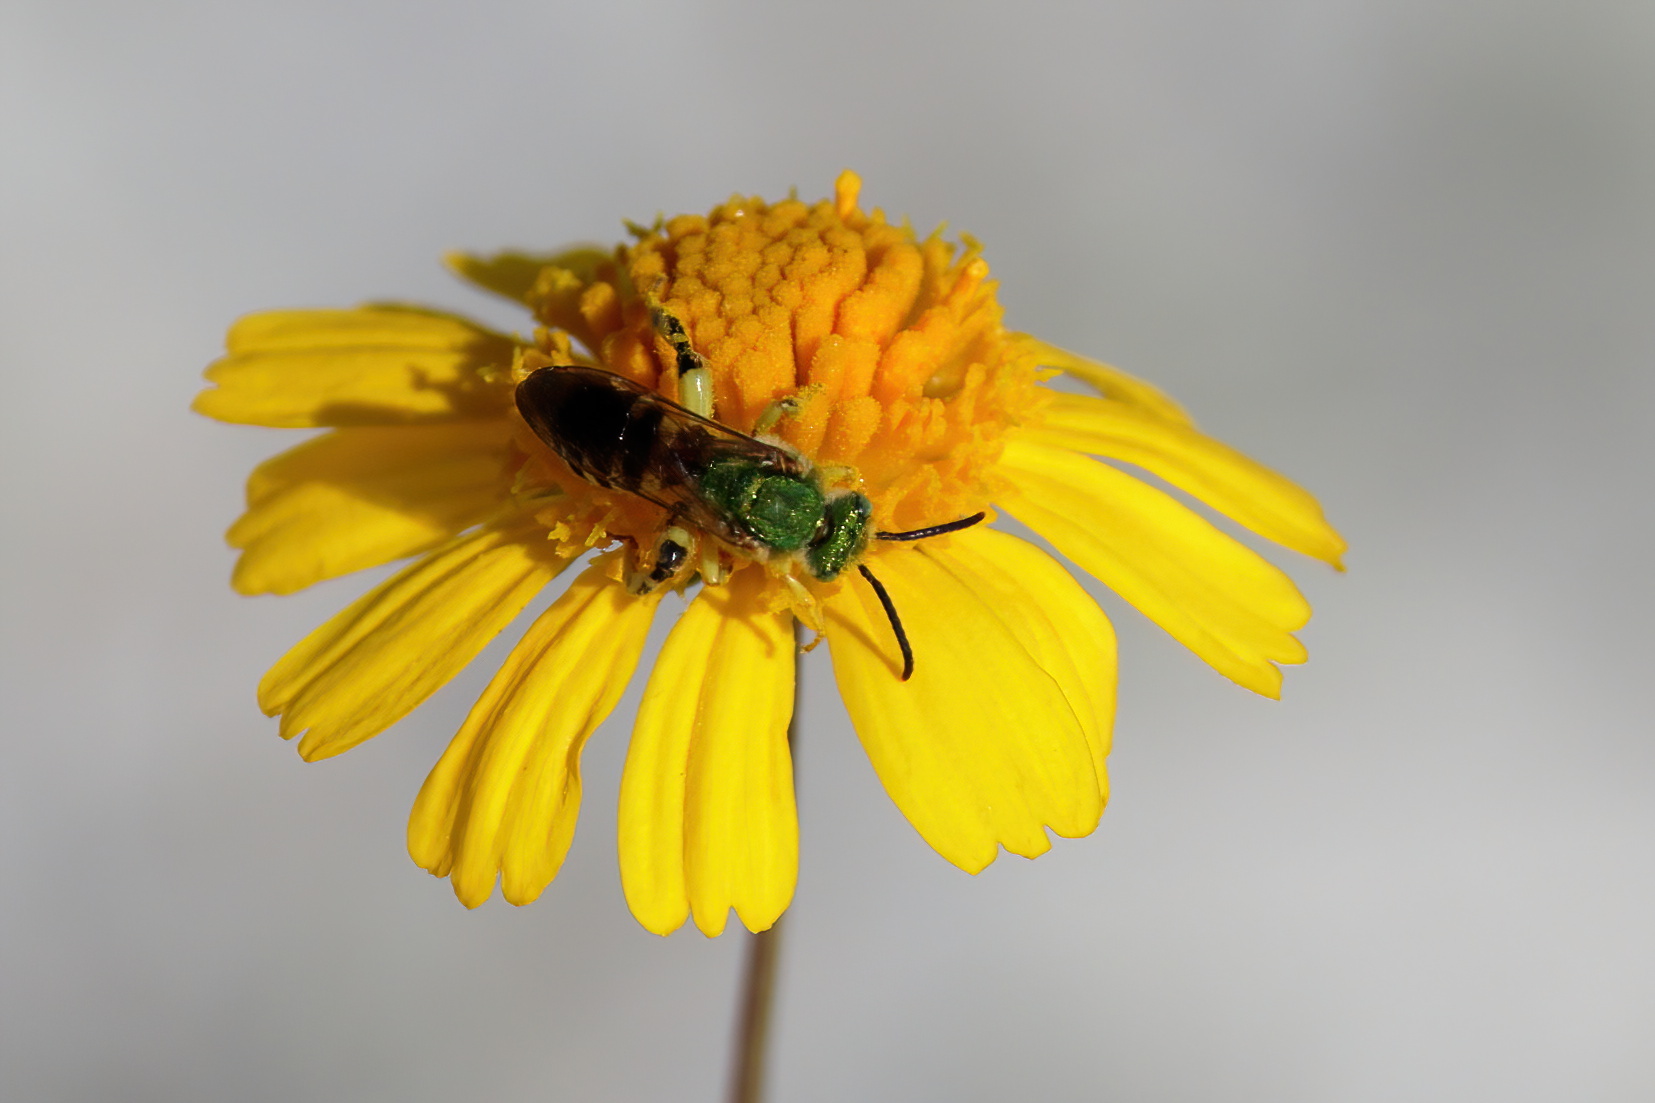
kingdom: Animalia
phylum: Arthropoda
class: Insecta
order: Hymenoptera
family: Halictidae
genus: Agapostemon
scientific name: Agapostemon splendens
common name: Brown-winged striped sweat bee
